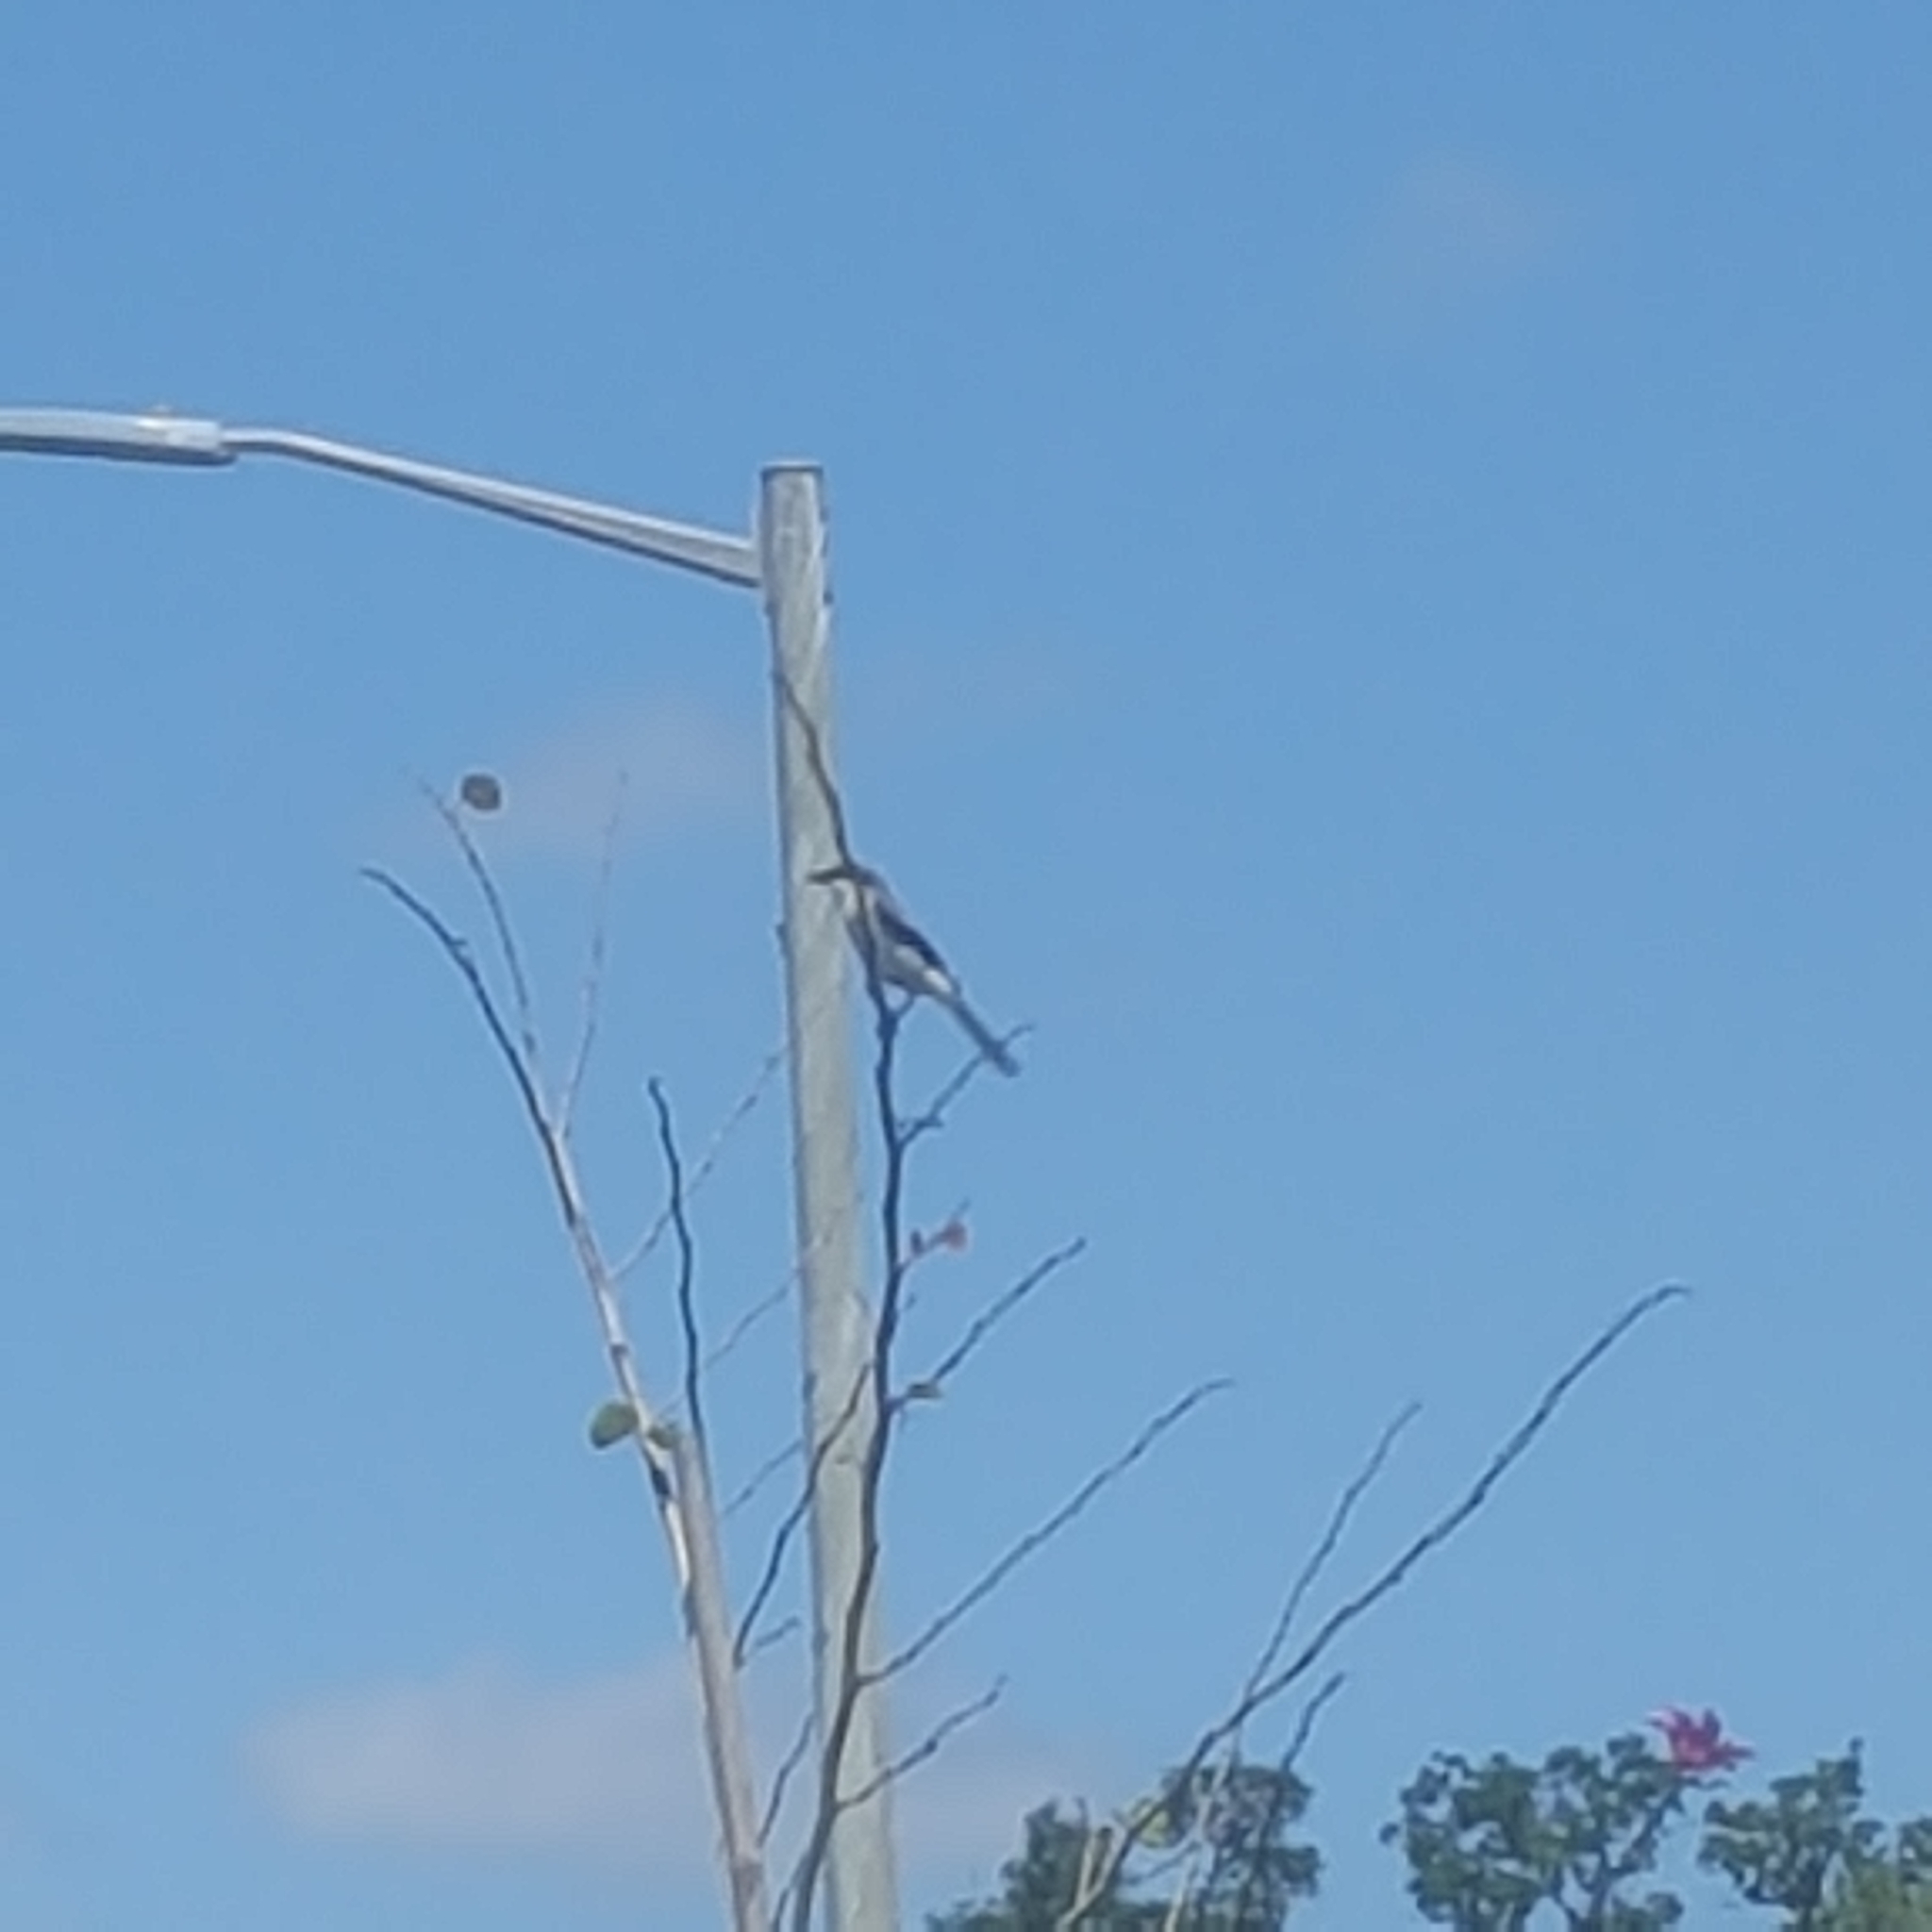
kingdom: Animalia
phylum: Chordata
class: Aves
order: Passeriformes
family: Laniidae
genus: Lanius
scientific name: Lanius ludovicianus
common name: Loggerhead shrike
